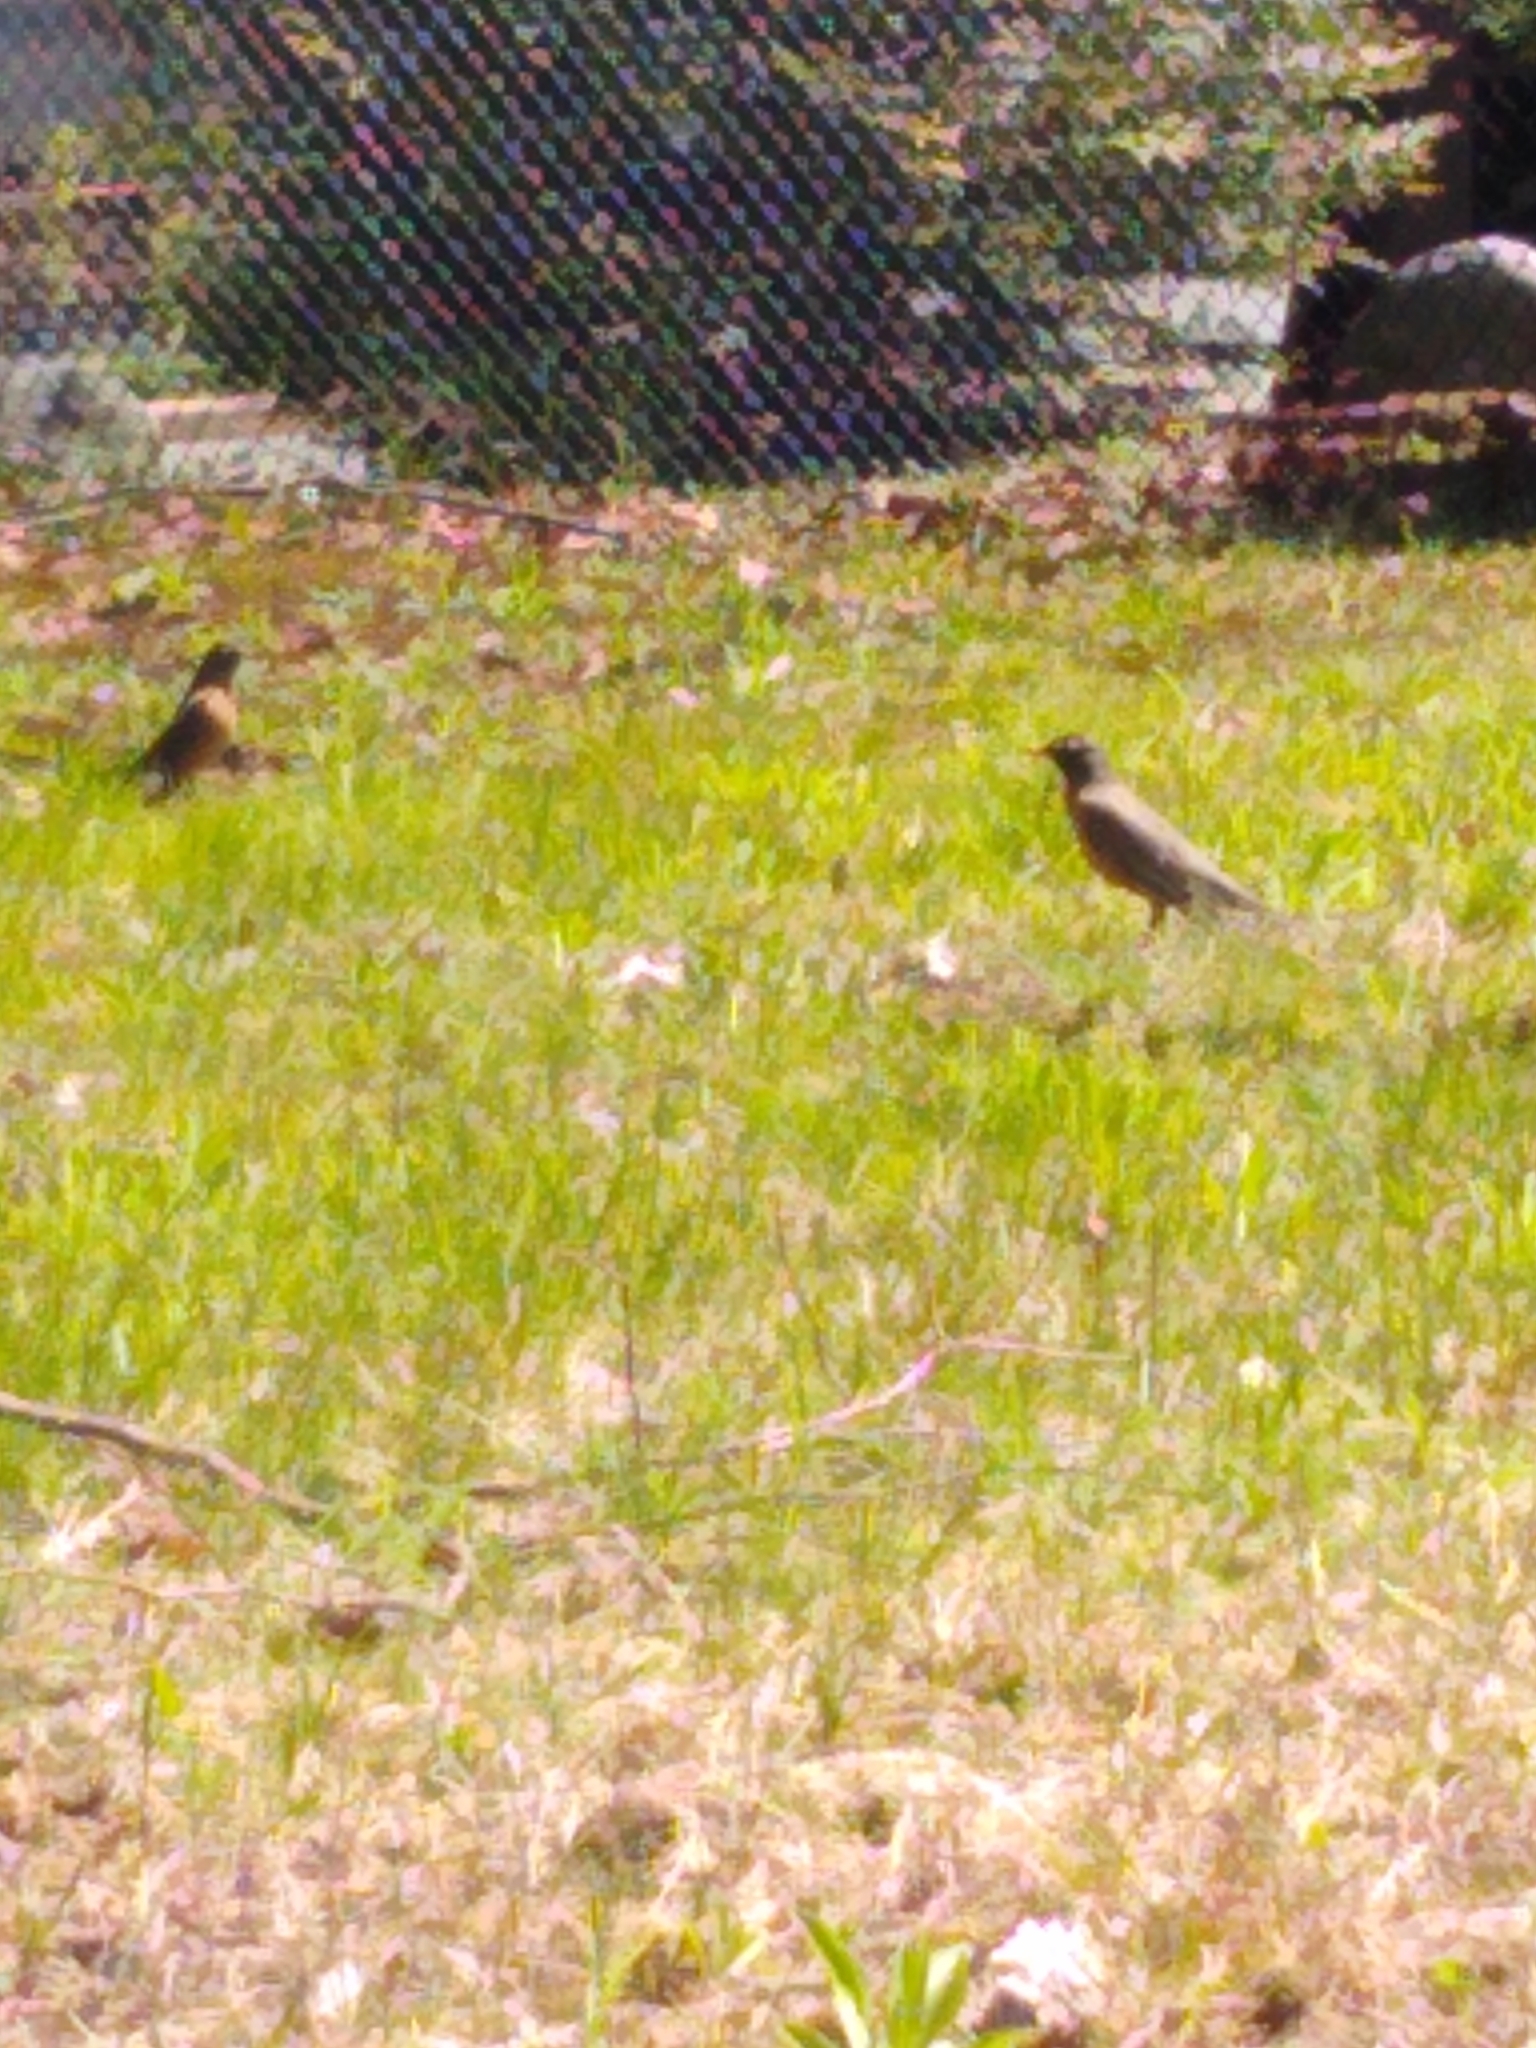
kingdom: Animalia
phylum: Chordata
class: Aves
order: Passeriformes
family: Turdidae
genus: Turdus
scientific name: Turdus migratorius
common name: American robin
